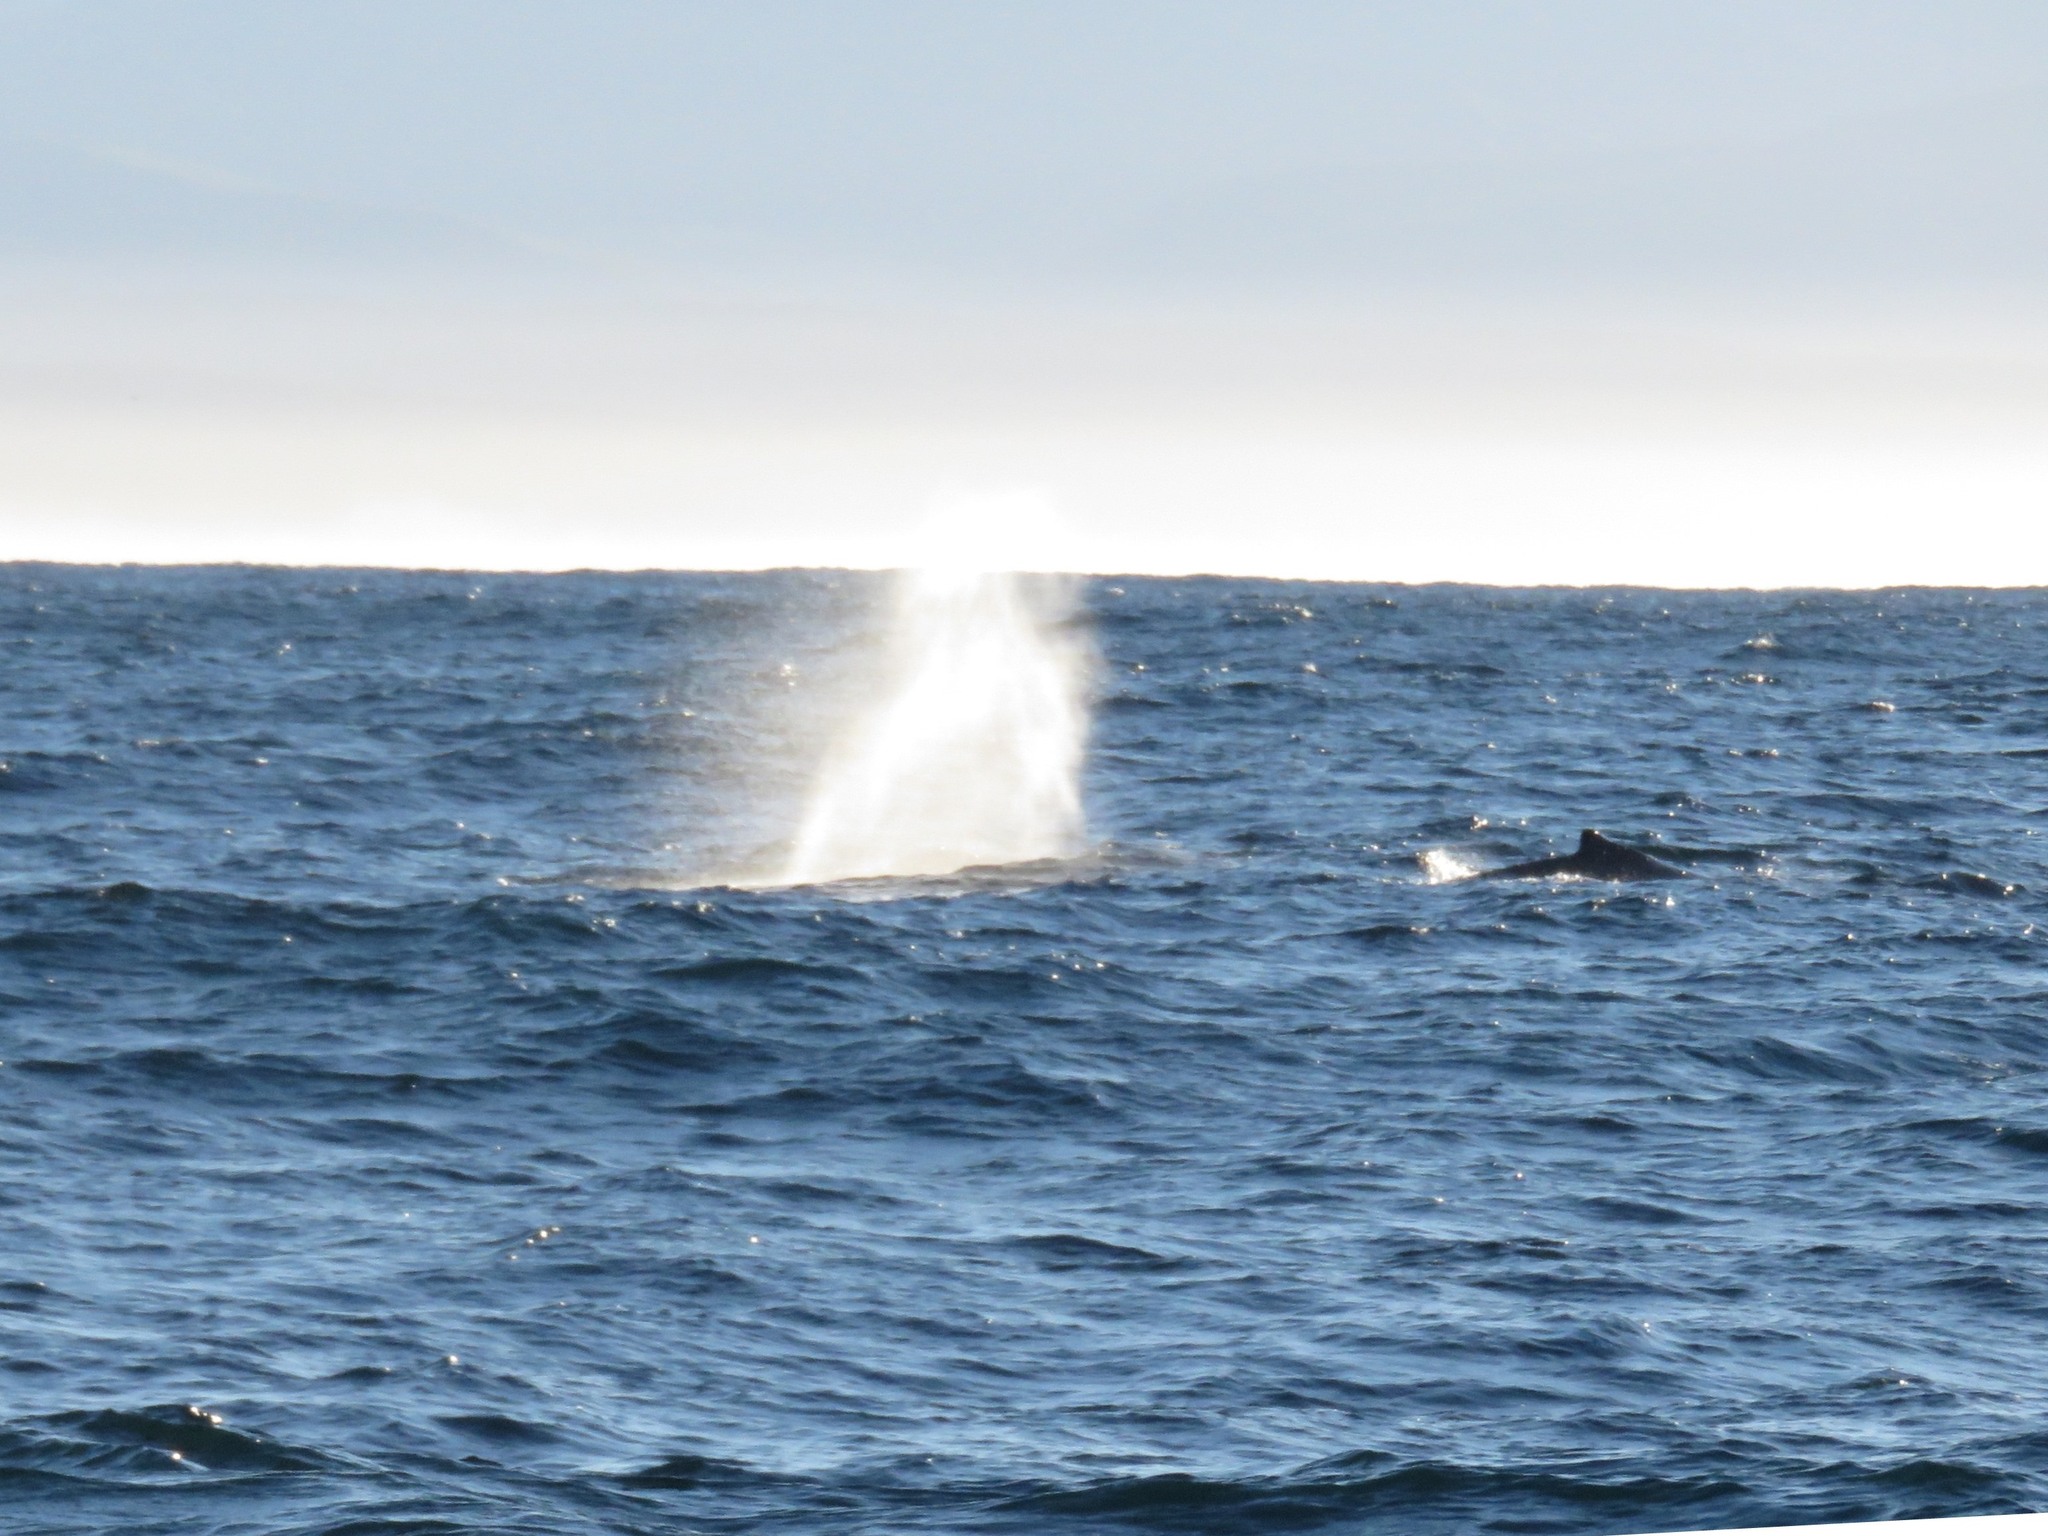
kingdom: Animalia
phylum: Chordata
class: Mammalia
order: Cetacea
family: Balaenopteridae
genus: Megaptera
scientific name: Megaptera novaeangliae
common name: Humpback whale
